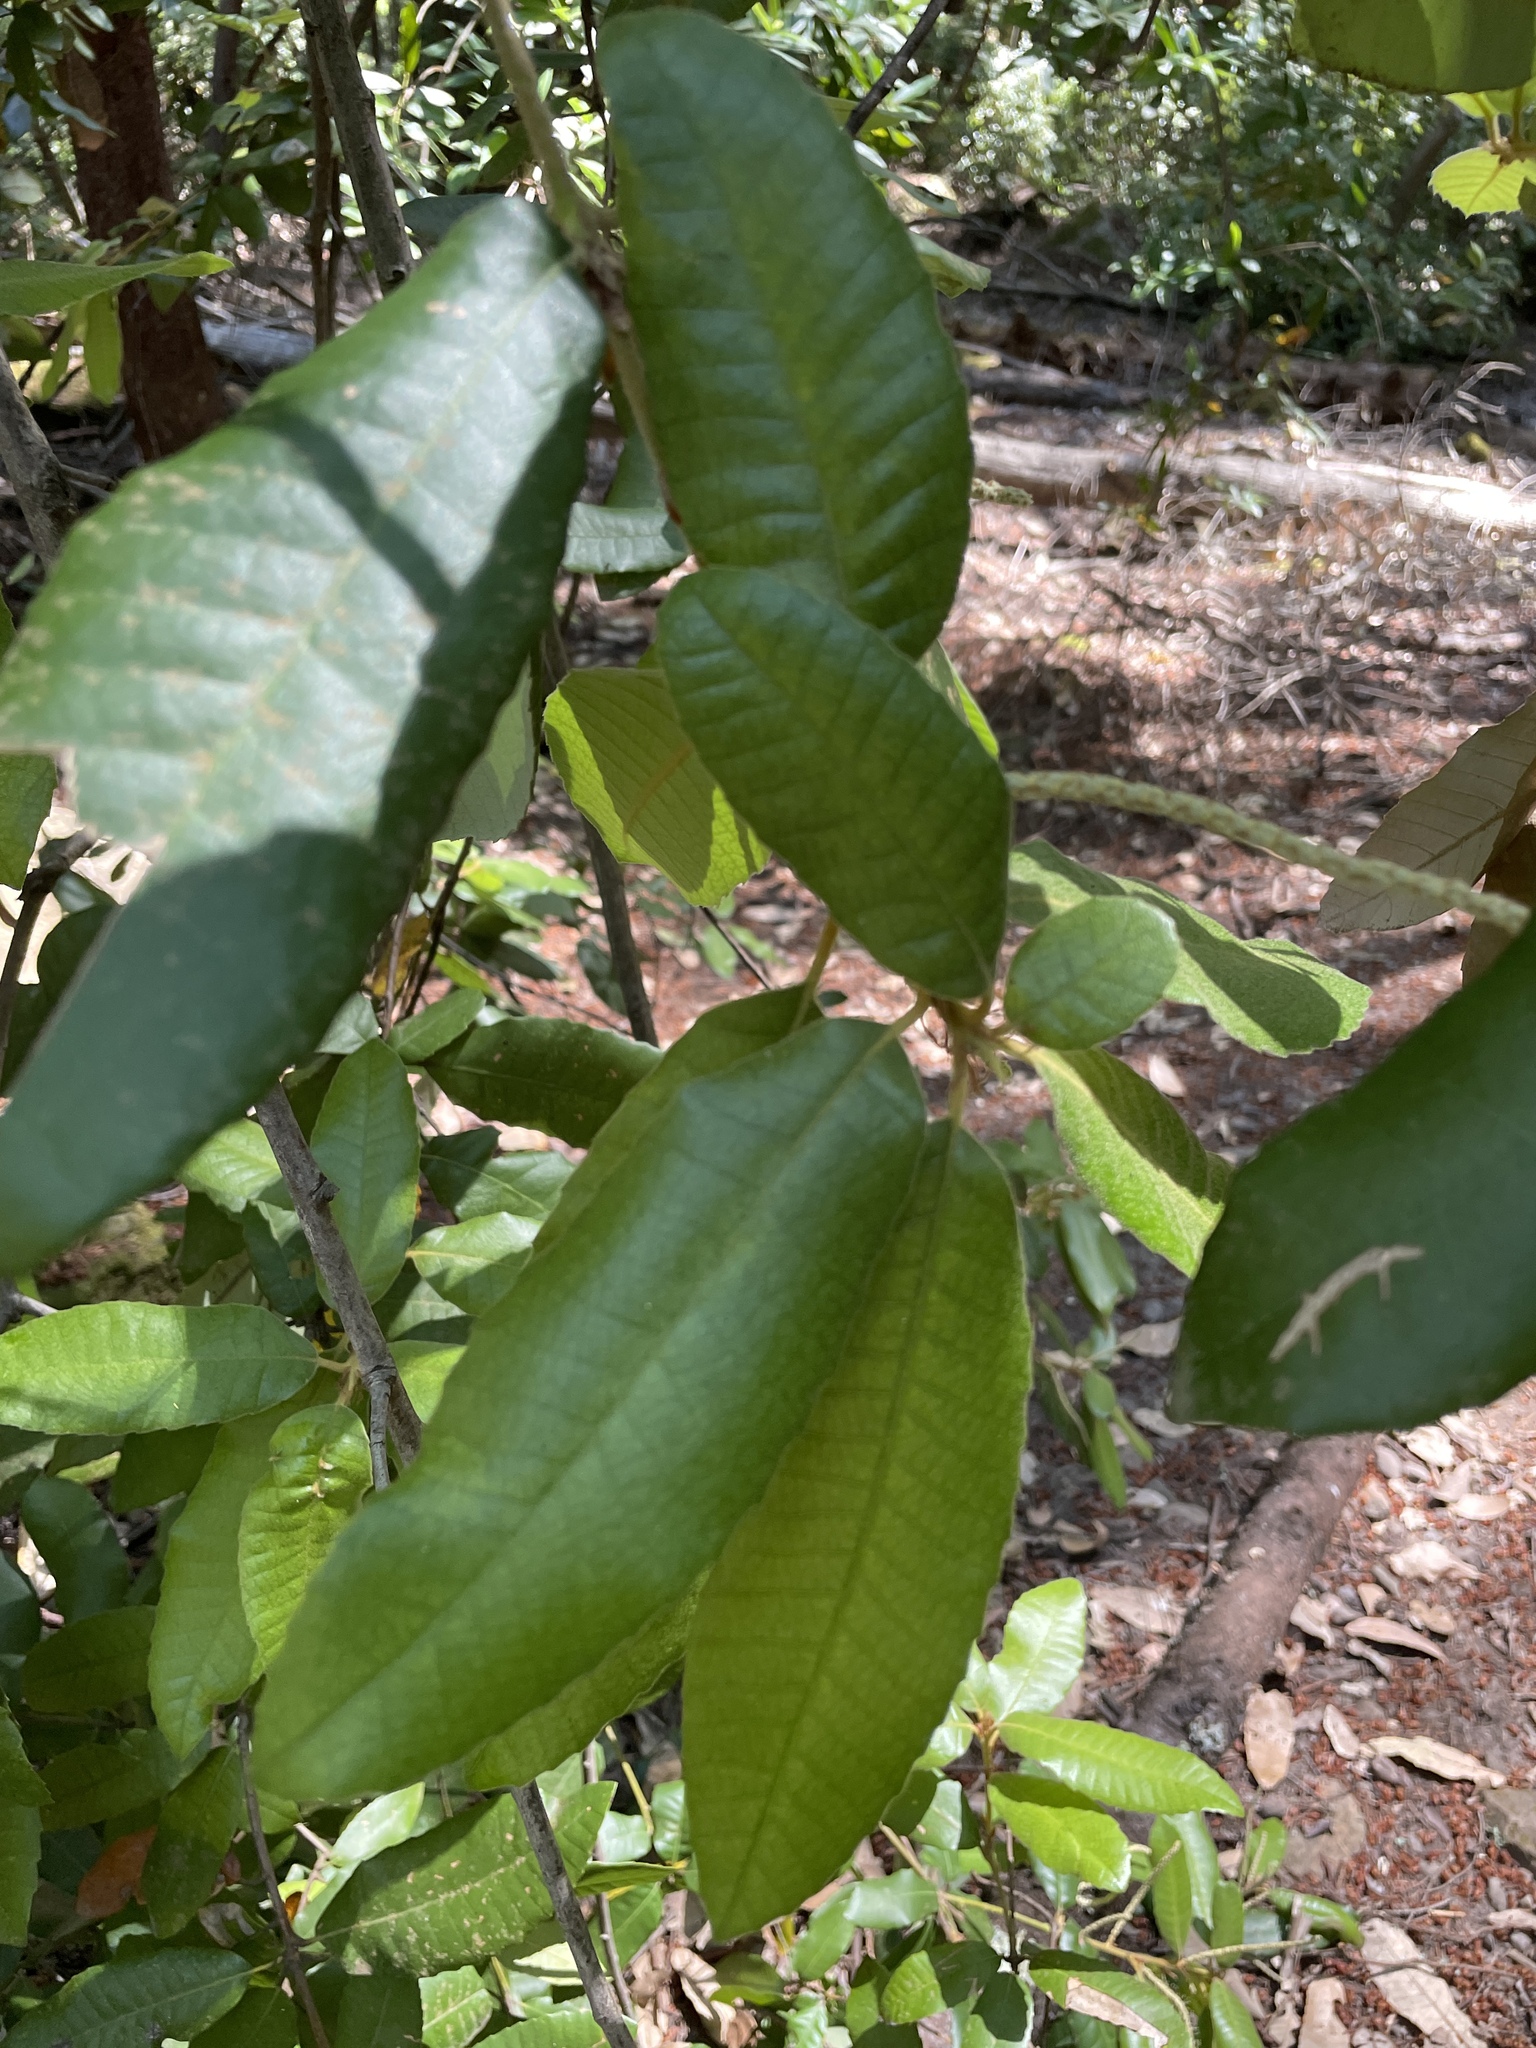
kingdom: Plantae
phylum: Tracheophyta
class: Magnoliopsida
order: Fagales
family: Fagaceae
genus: Notholithocarpus
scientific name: Notholithocarpus densiflorus
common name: Tan bark oak
